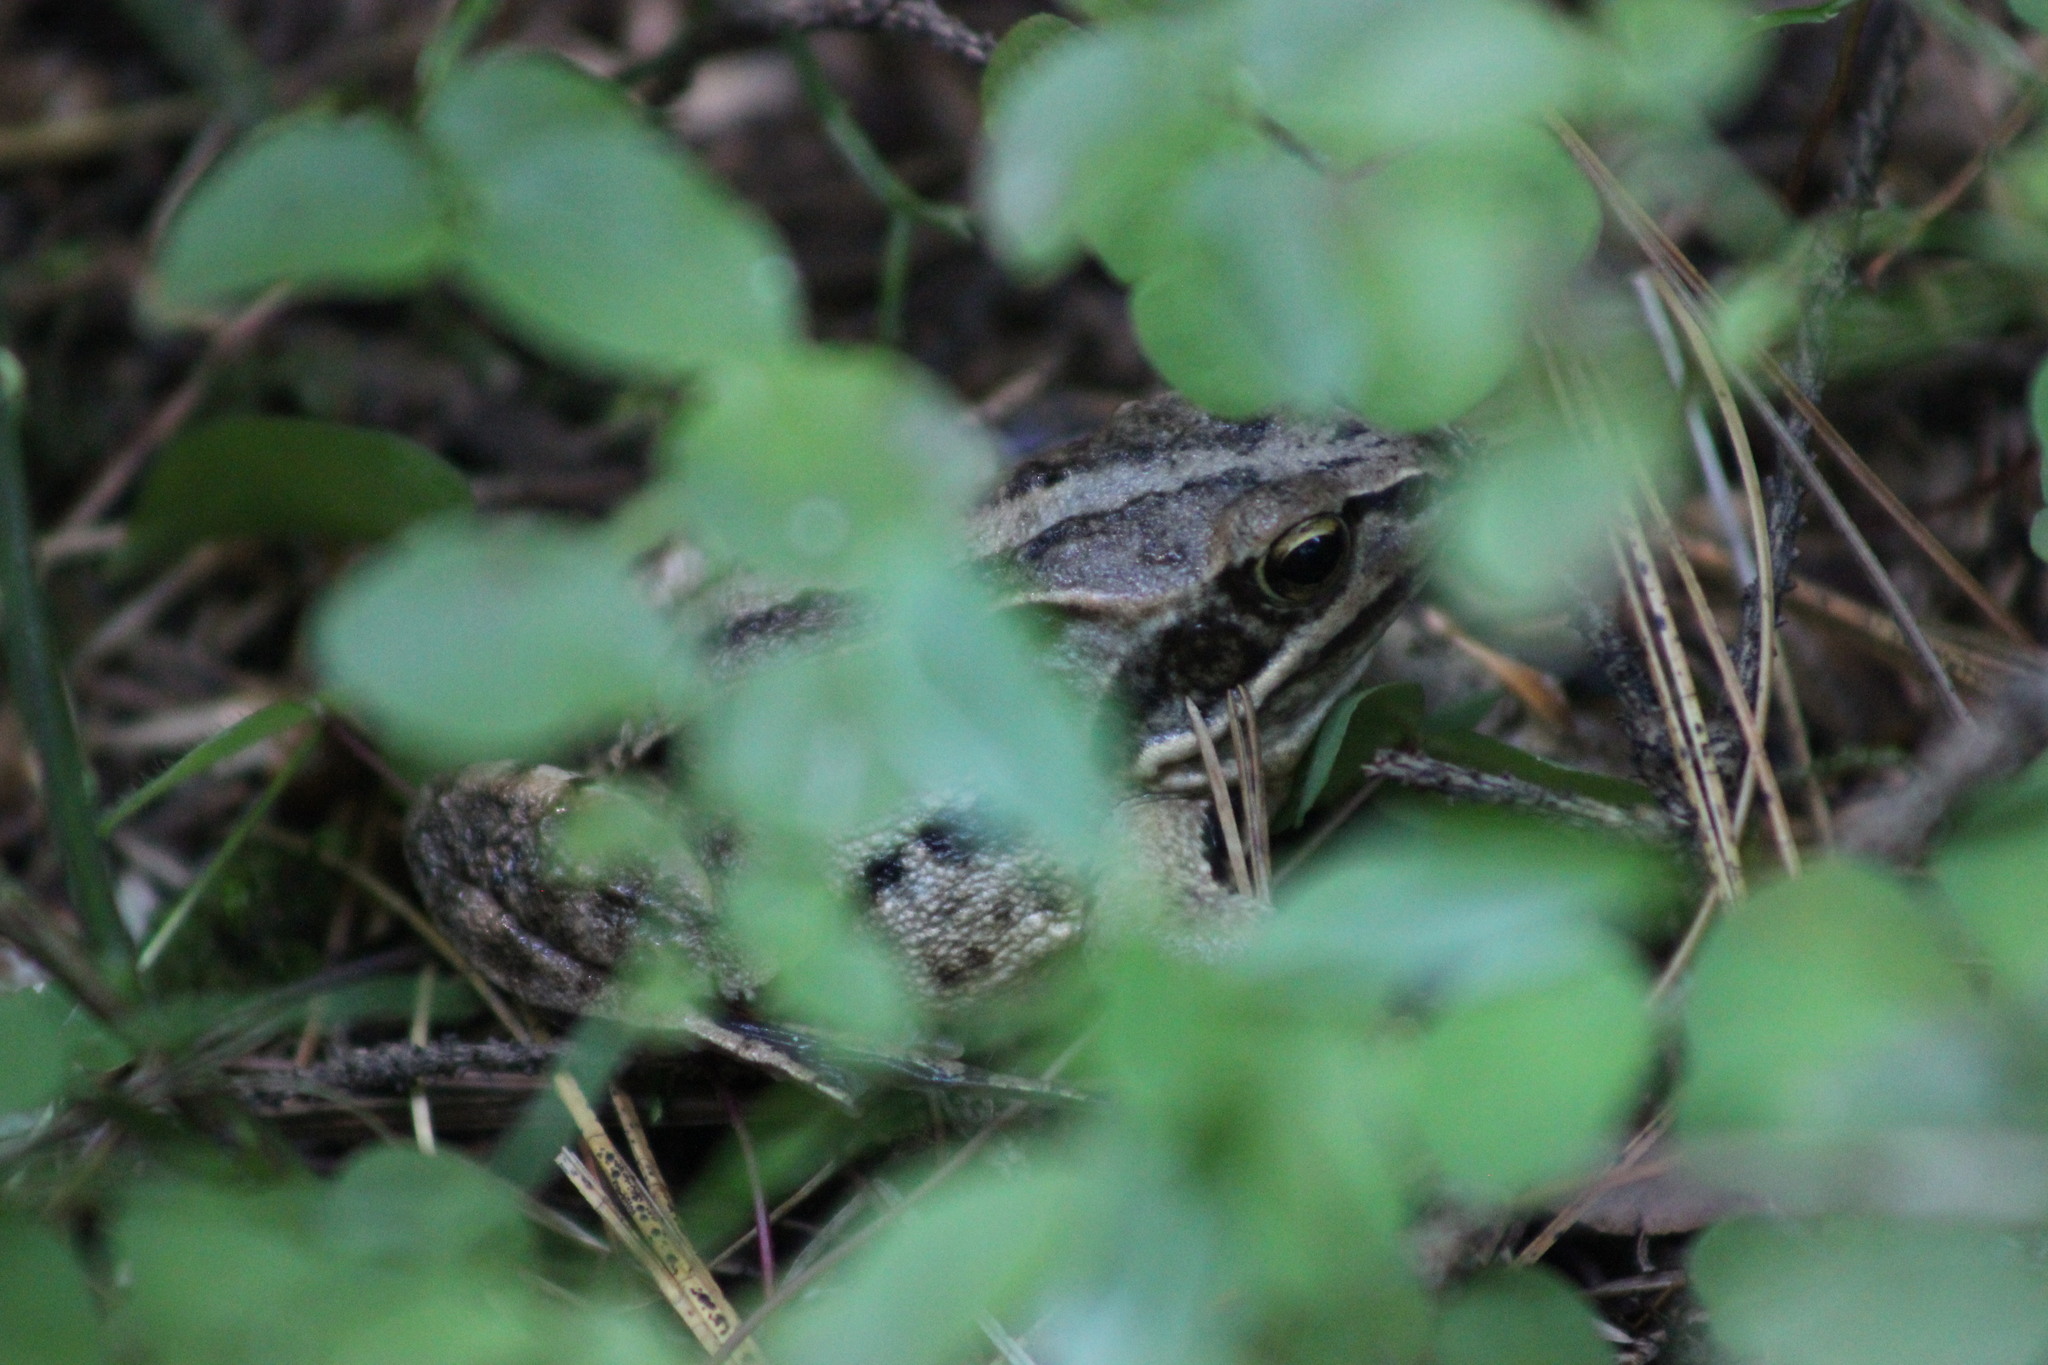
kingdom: Animalia
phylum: Chordata
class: Amphibia
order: Anura
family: Ranidae
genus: Rana
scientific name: Rana arvalis
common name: Moor frog
